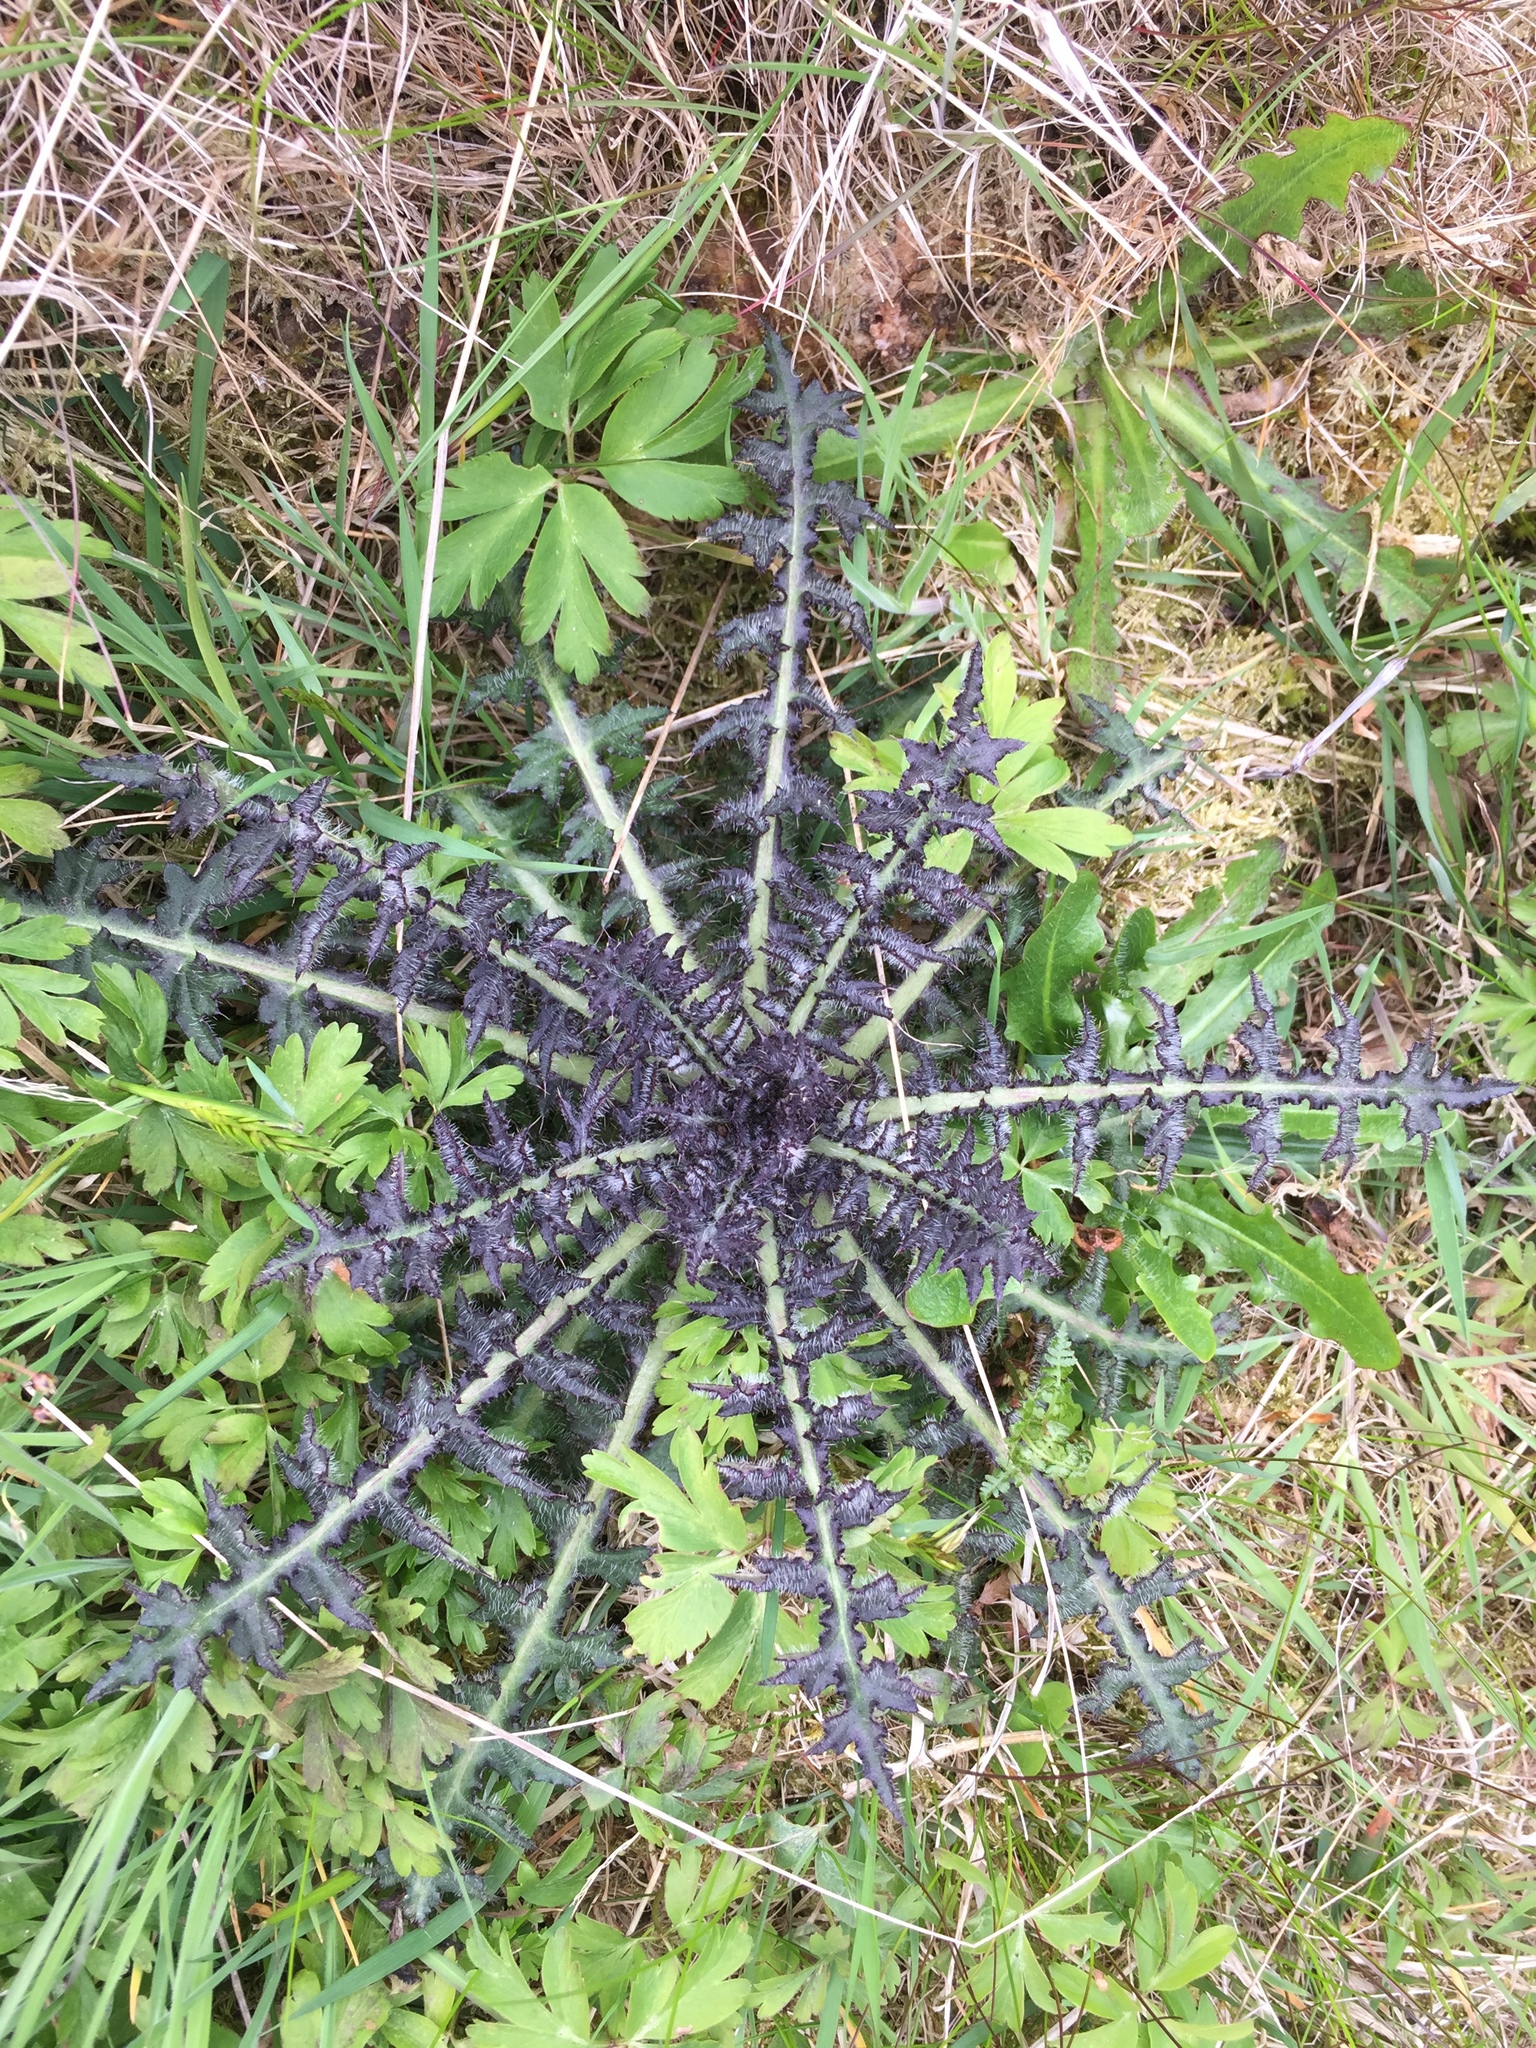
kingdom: Plantae
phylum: Tracheophyta
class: Magnoliopsida
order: Asterales
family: Asteraceae
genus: Cirsium
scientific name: Cirsium palustre
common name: Marsh thistle
